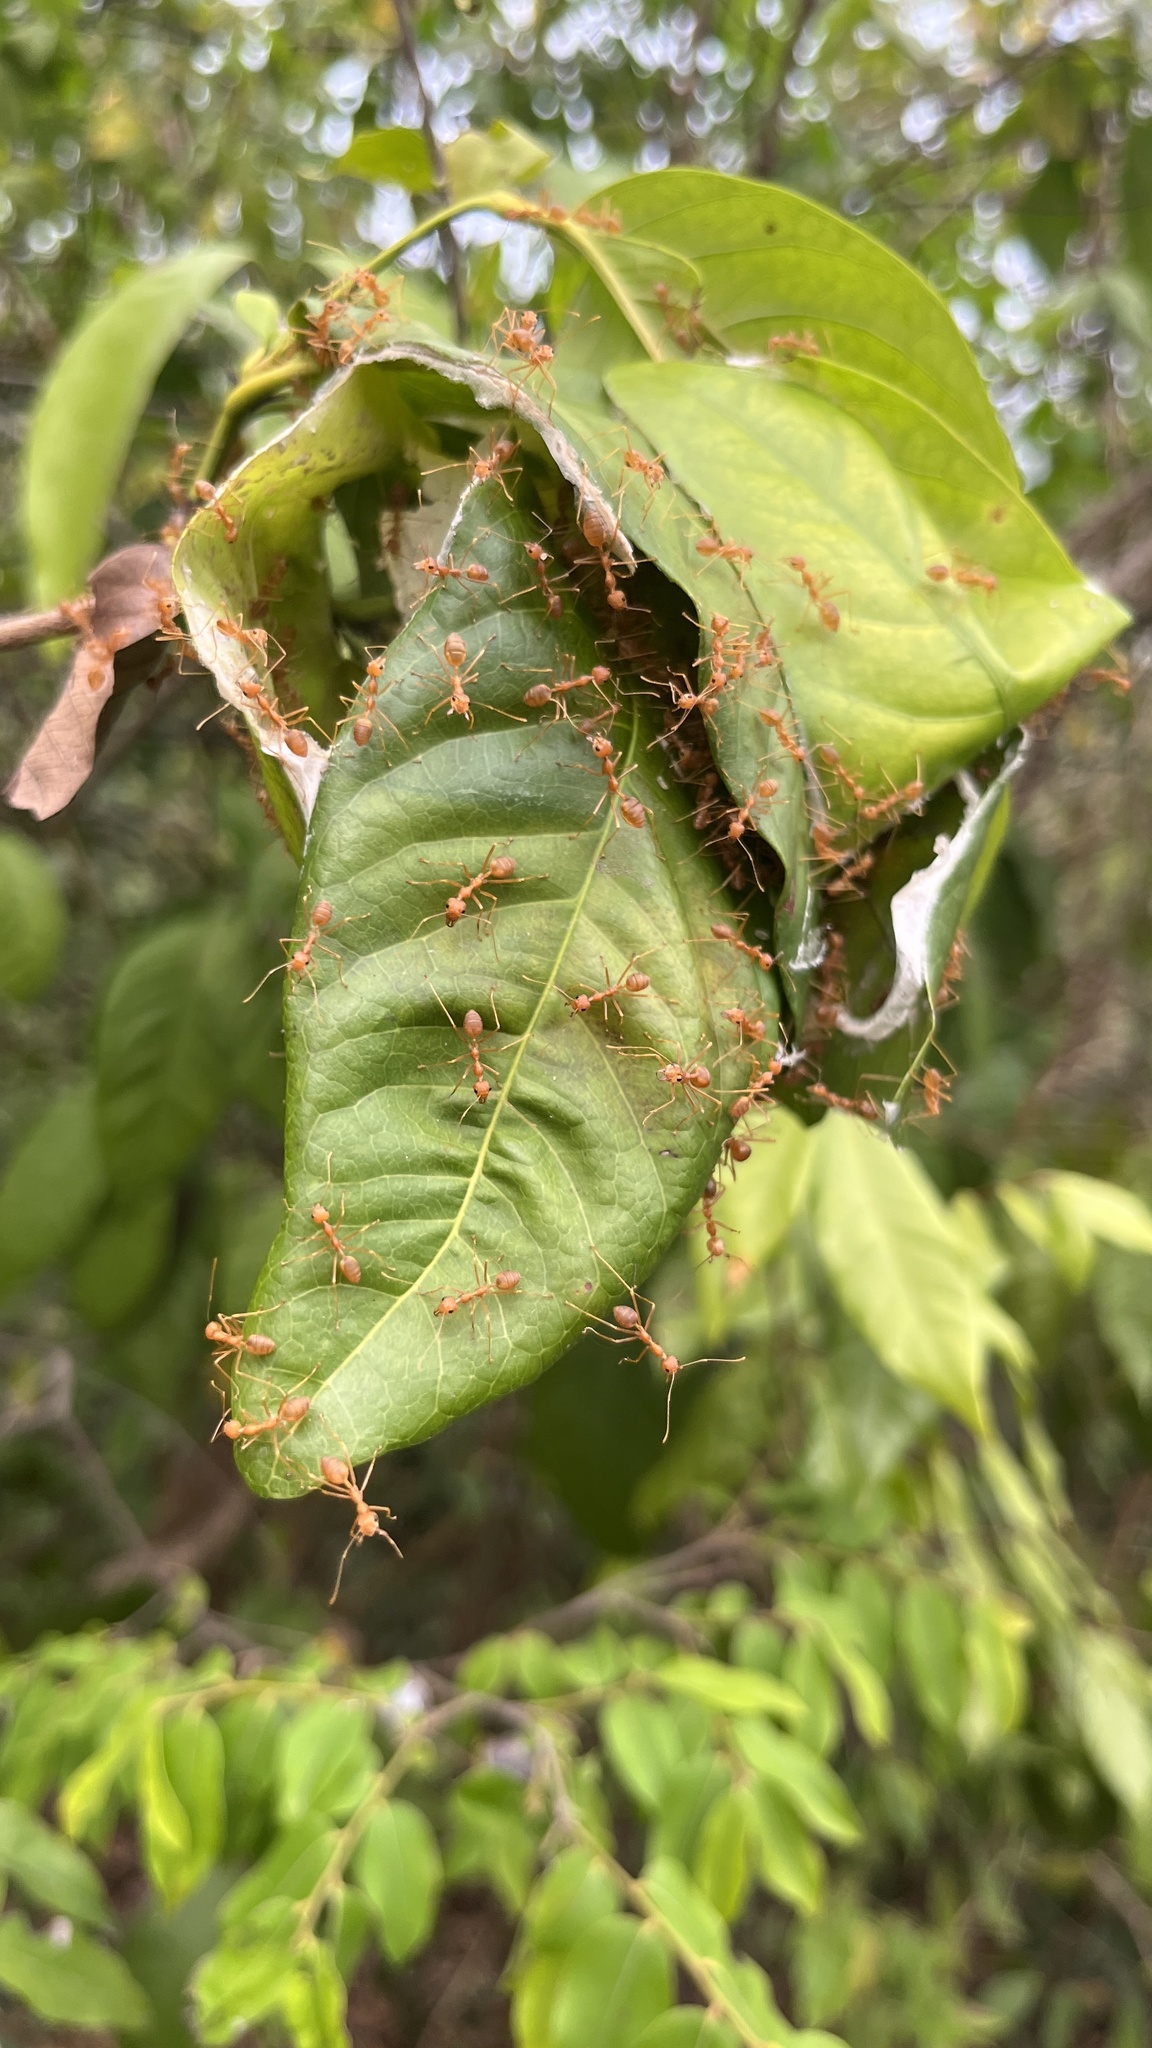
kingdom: Animalia
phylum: Arthropoda
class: Insecta
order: Hymenoptera
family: Formicidae
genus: Oecophylla
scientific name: Oecophylla smaragdina
